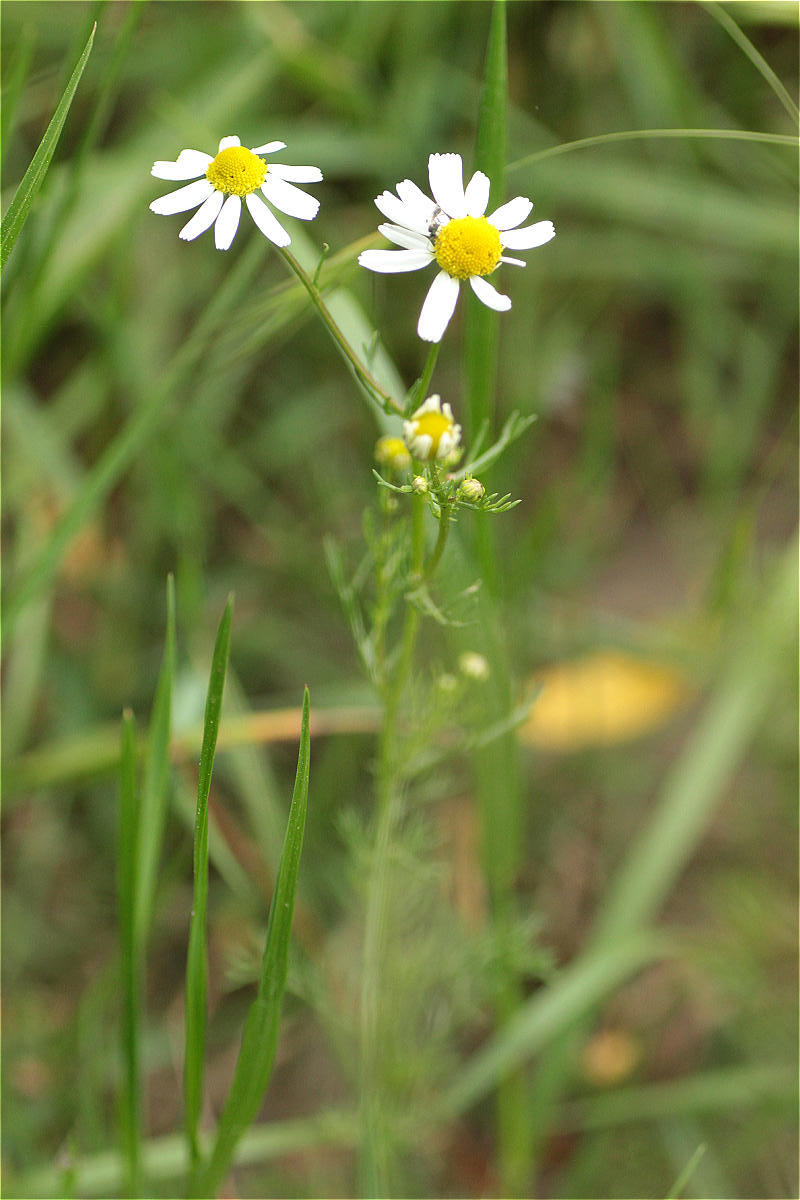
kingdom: Plantae
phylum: Tracheophyta
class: Magnoliopsida
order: Asterales
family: Asteraceae
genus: Matricaria
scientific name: Matricaria chamomilla
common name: Scented mayweed
